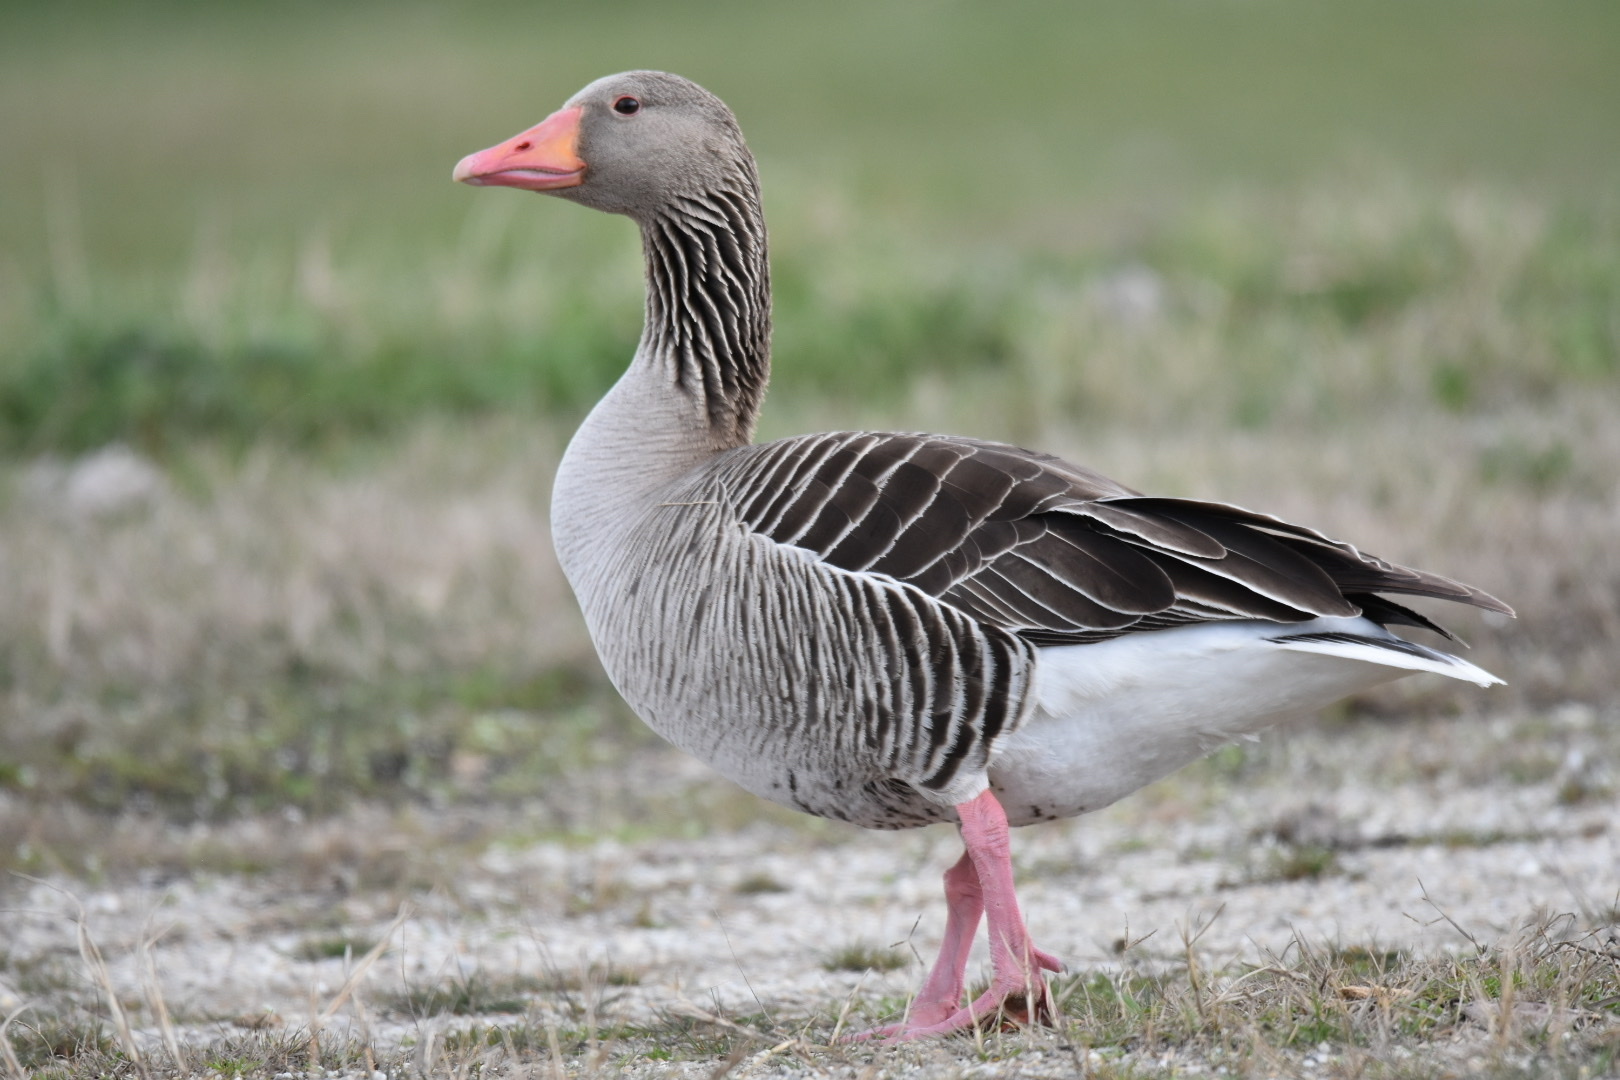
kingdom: Animalia
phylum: Chordata
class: Aves
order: Anseriformes
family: Anatidae
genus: Anser
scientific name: Anser anser
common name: Greylag goose
